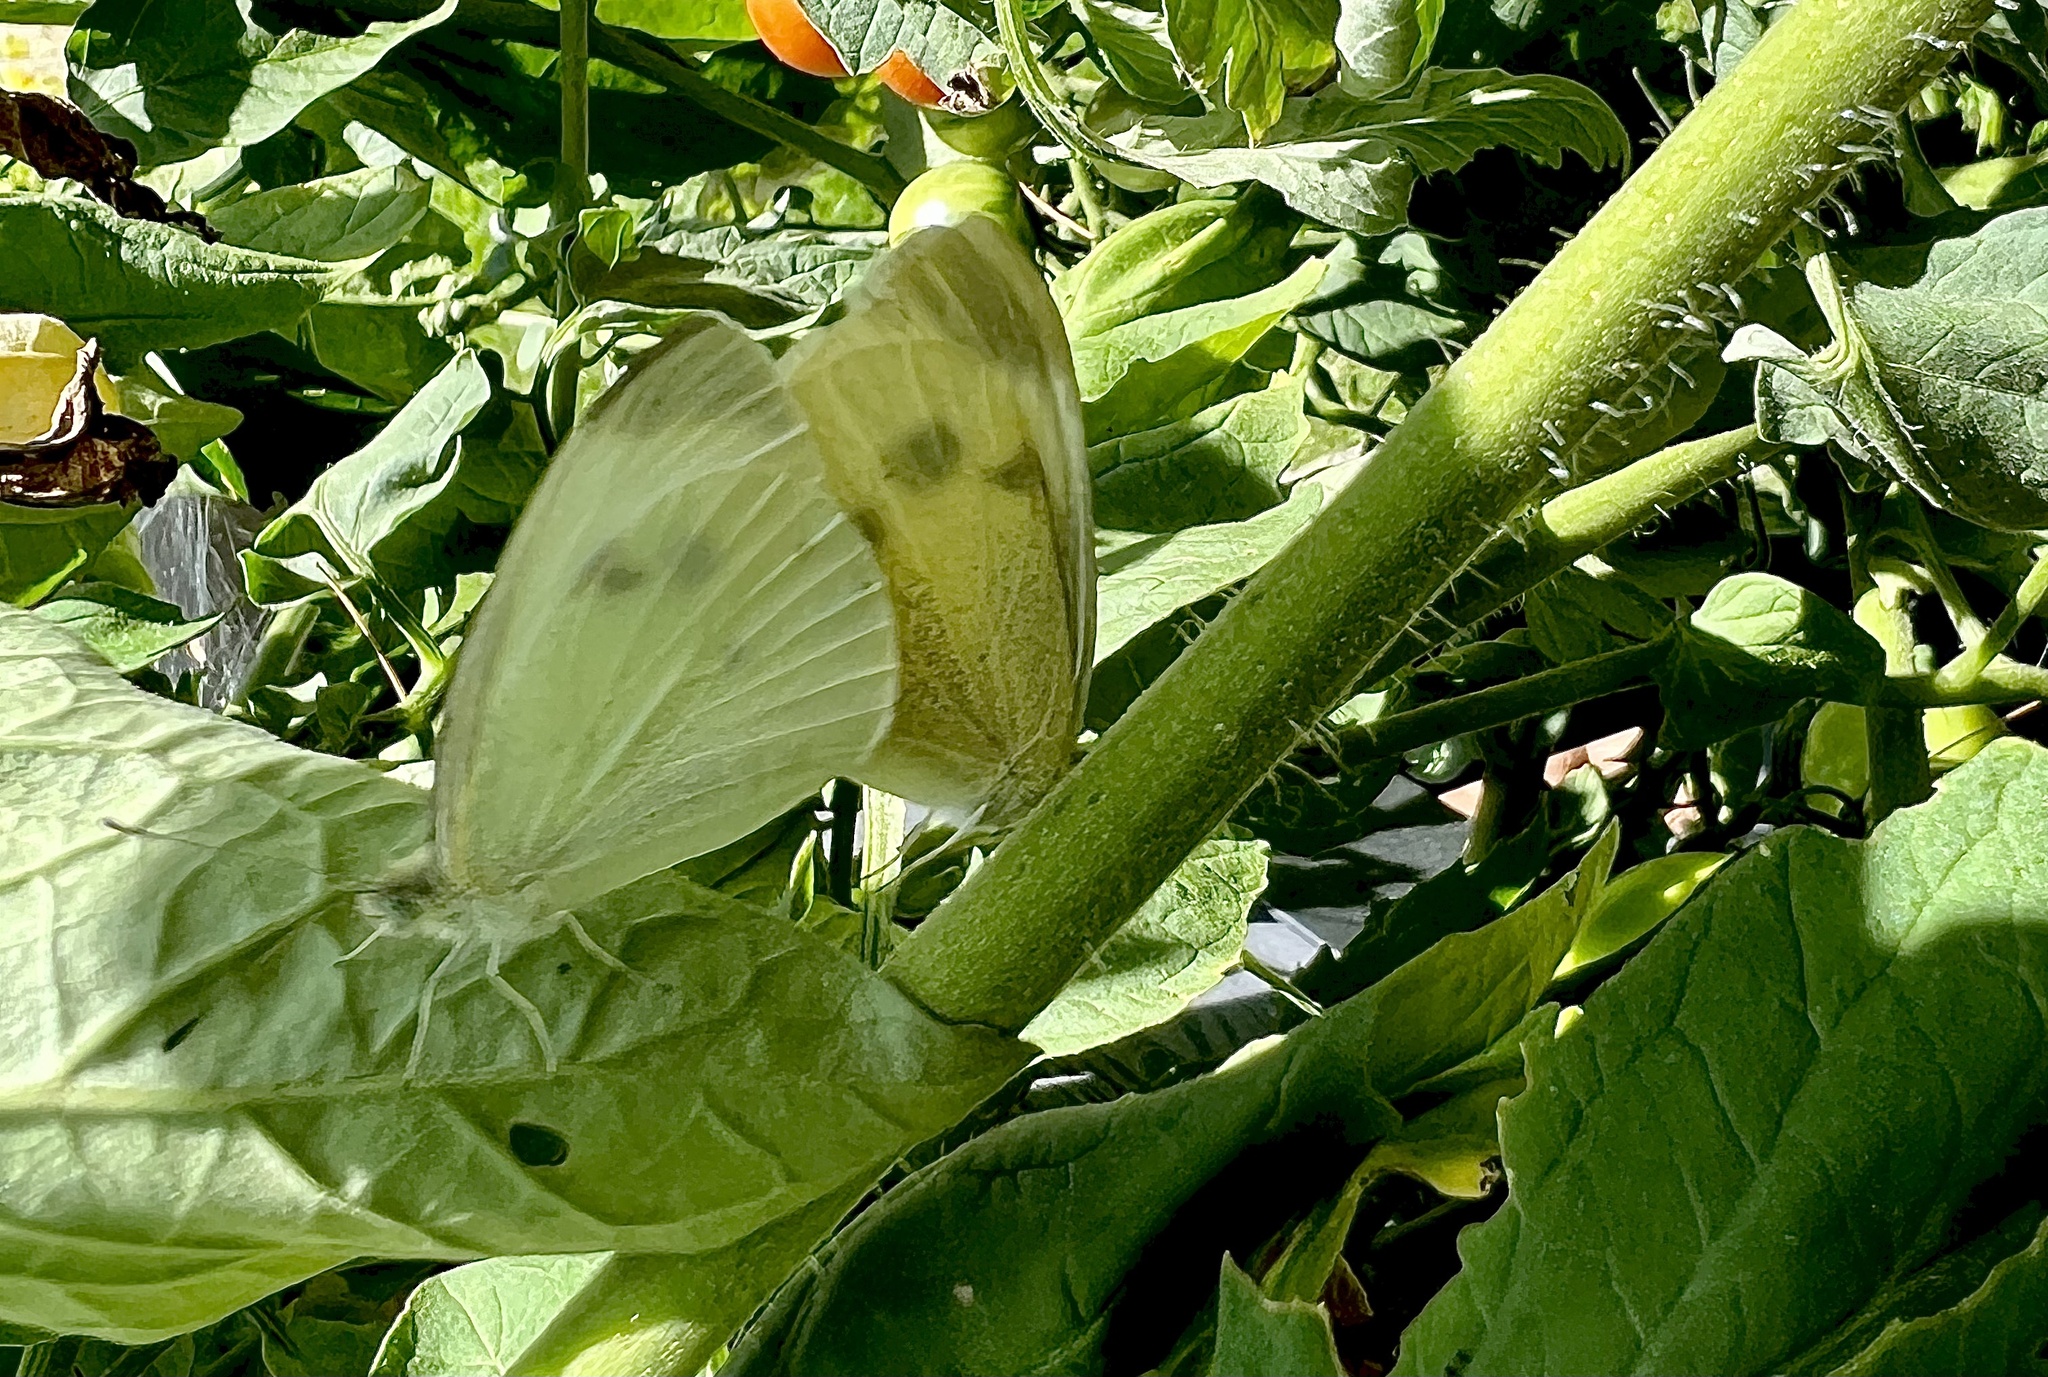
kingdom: Animalia
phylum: Arthropoda
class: Insecta
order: Lepidoptera
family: Pieridae
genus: Pieris
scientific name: Pieris rapae
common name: Small white
